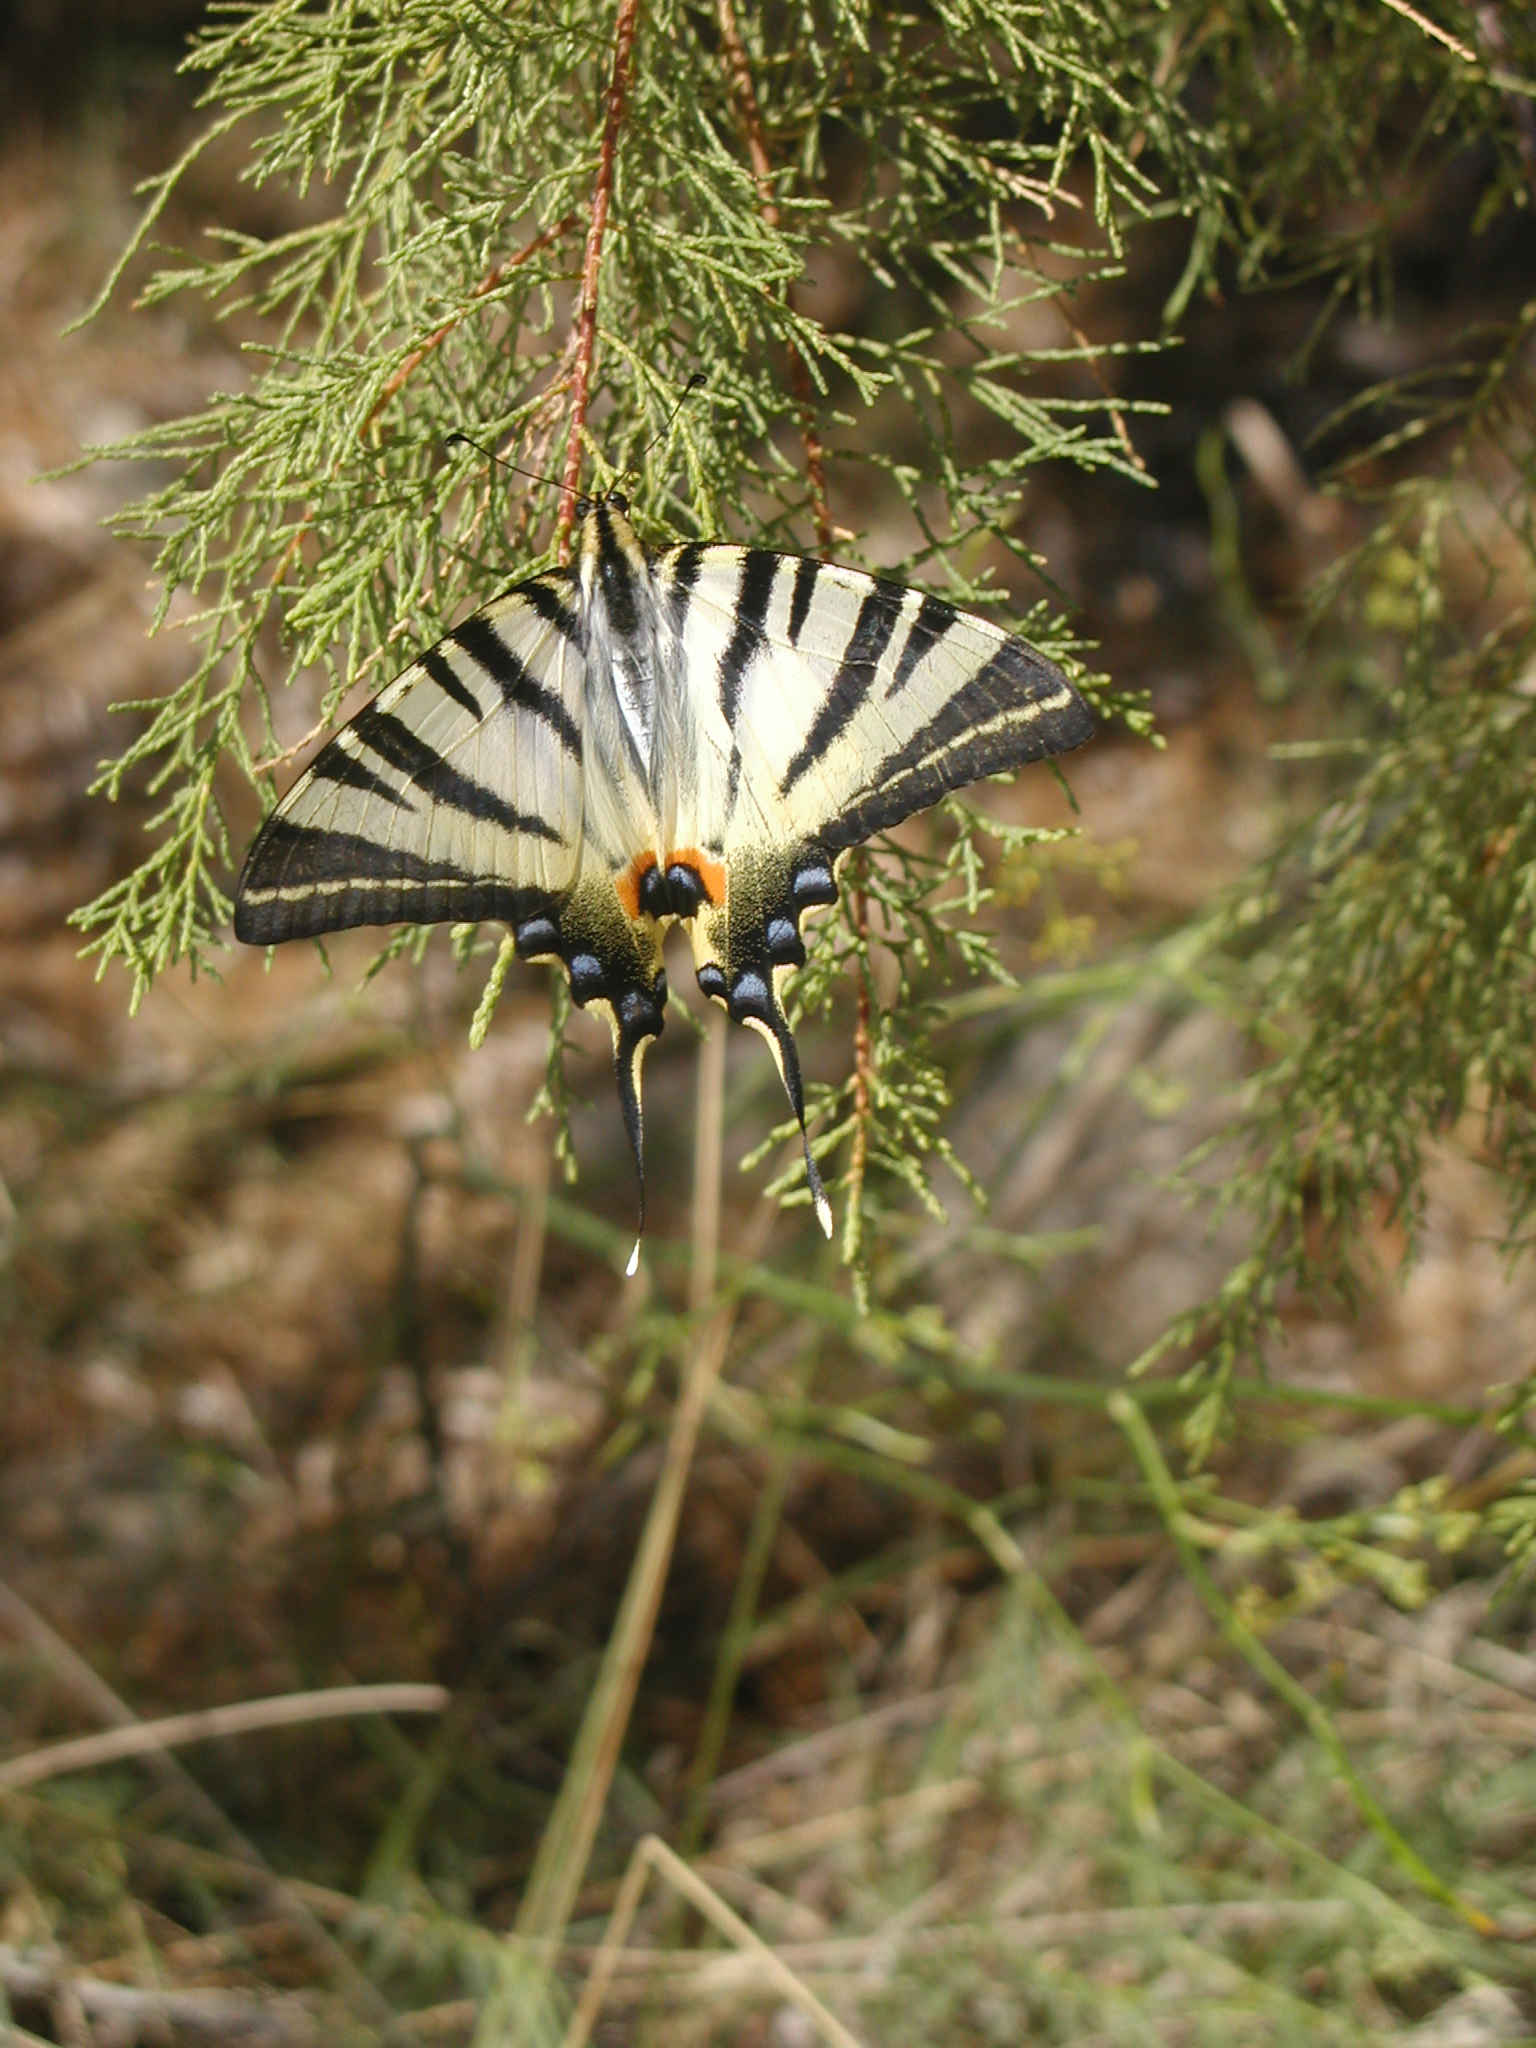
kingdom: Animalia
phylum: Arthropoda
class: Insecta
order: Lepidoptera
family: Papilionidae
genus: Iphiclides
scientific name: Iphiclides podalirius
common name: Scarce swallowtail
